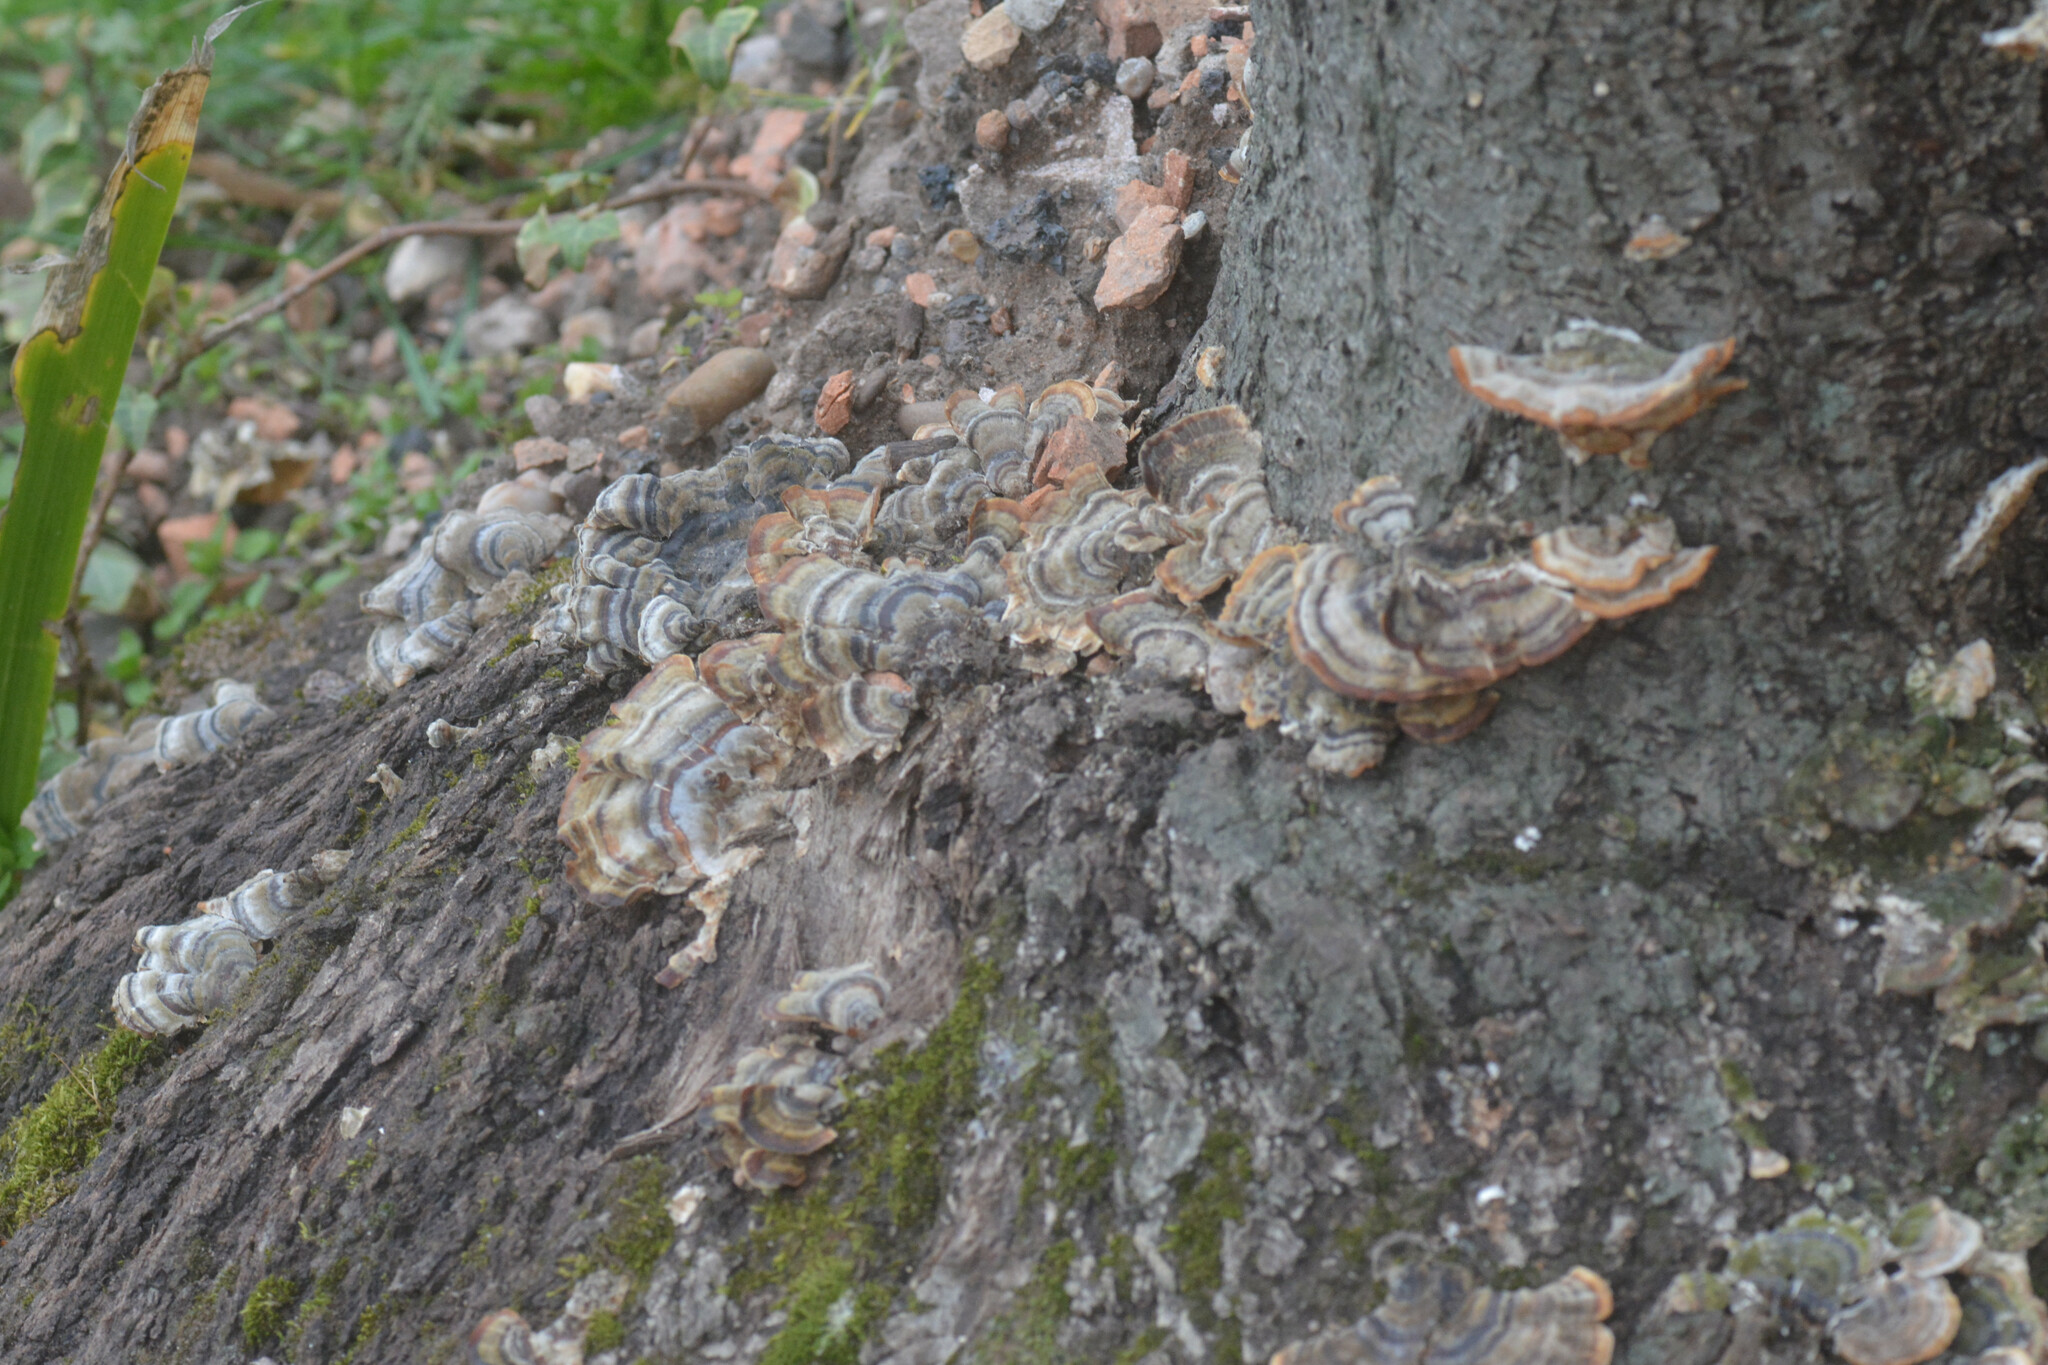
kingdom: Fungi
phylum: Basidiomycota
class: Agaricomycetes
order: Polyporales
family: Polyporaceae
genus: Trametes
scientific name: Trametes versicolor
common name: Turkeytail
